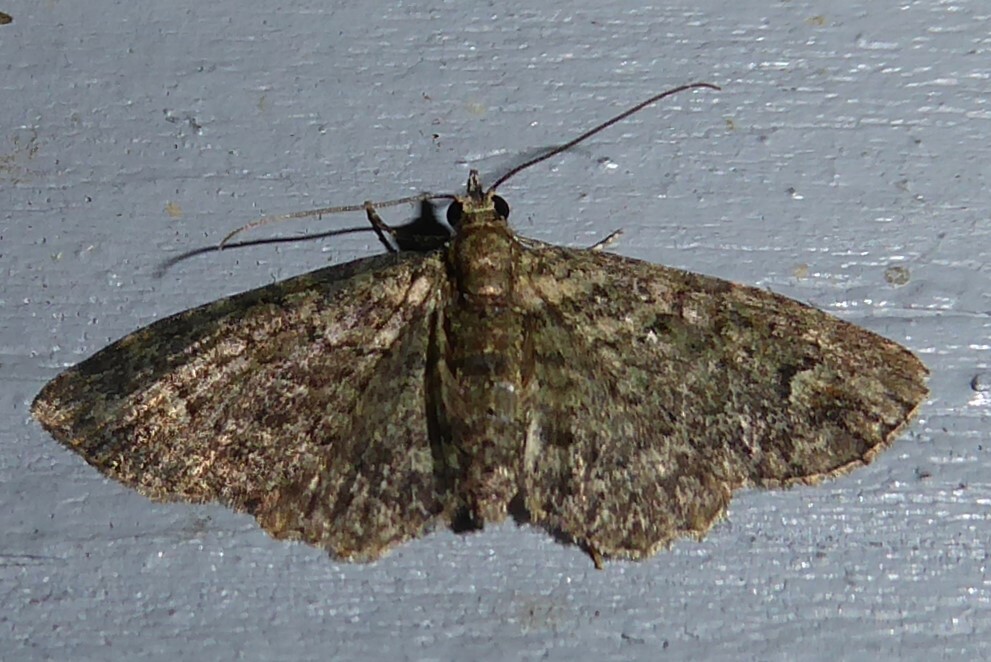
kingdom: Animalia
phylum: Arthropoda
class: Insecta
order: Lepidoptera
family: Geometridae
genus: Pasiphilodes
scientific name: Pasiphilodes testulata
